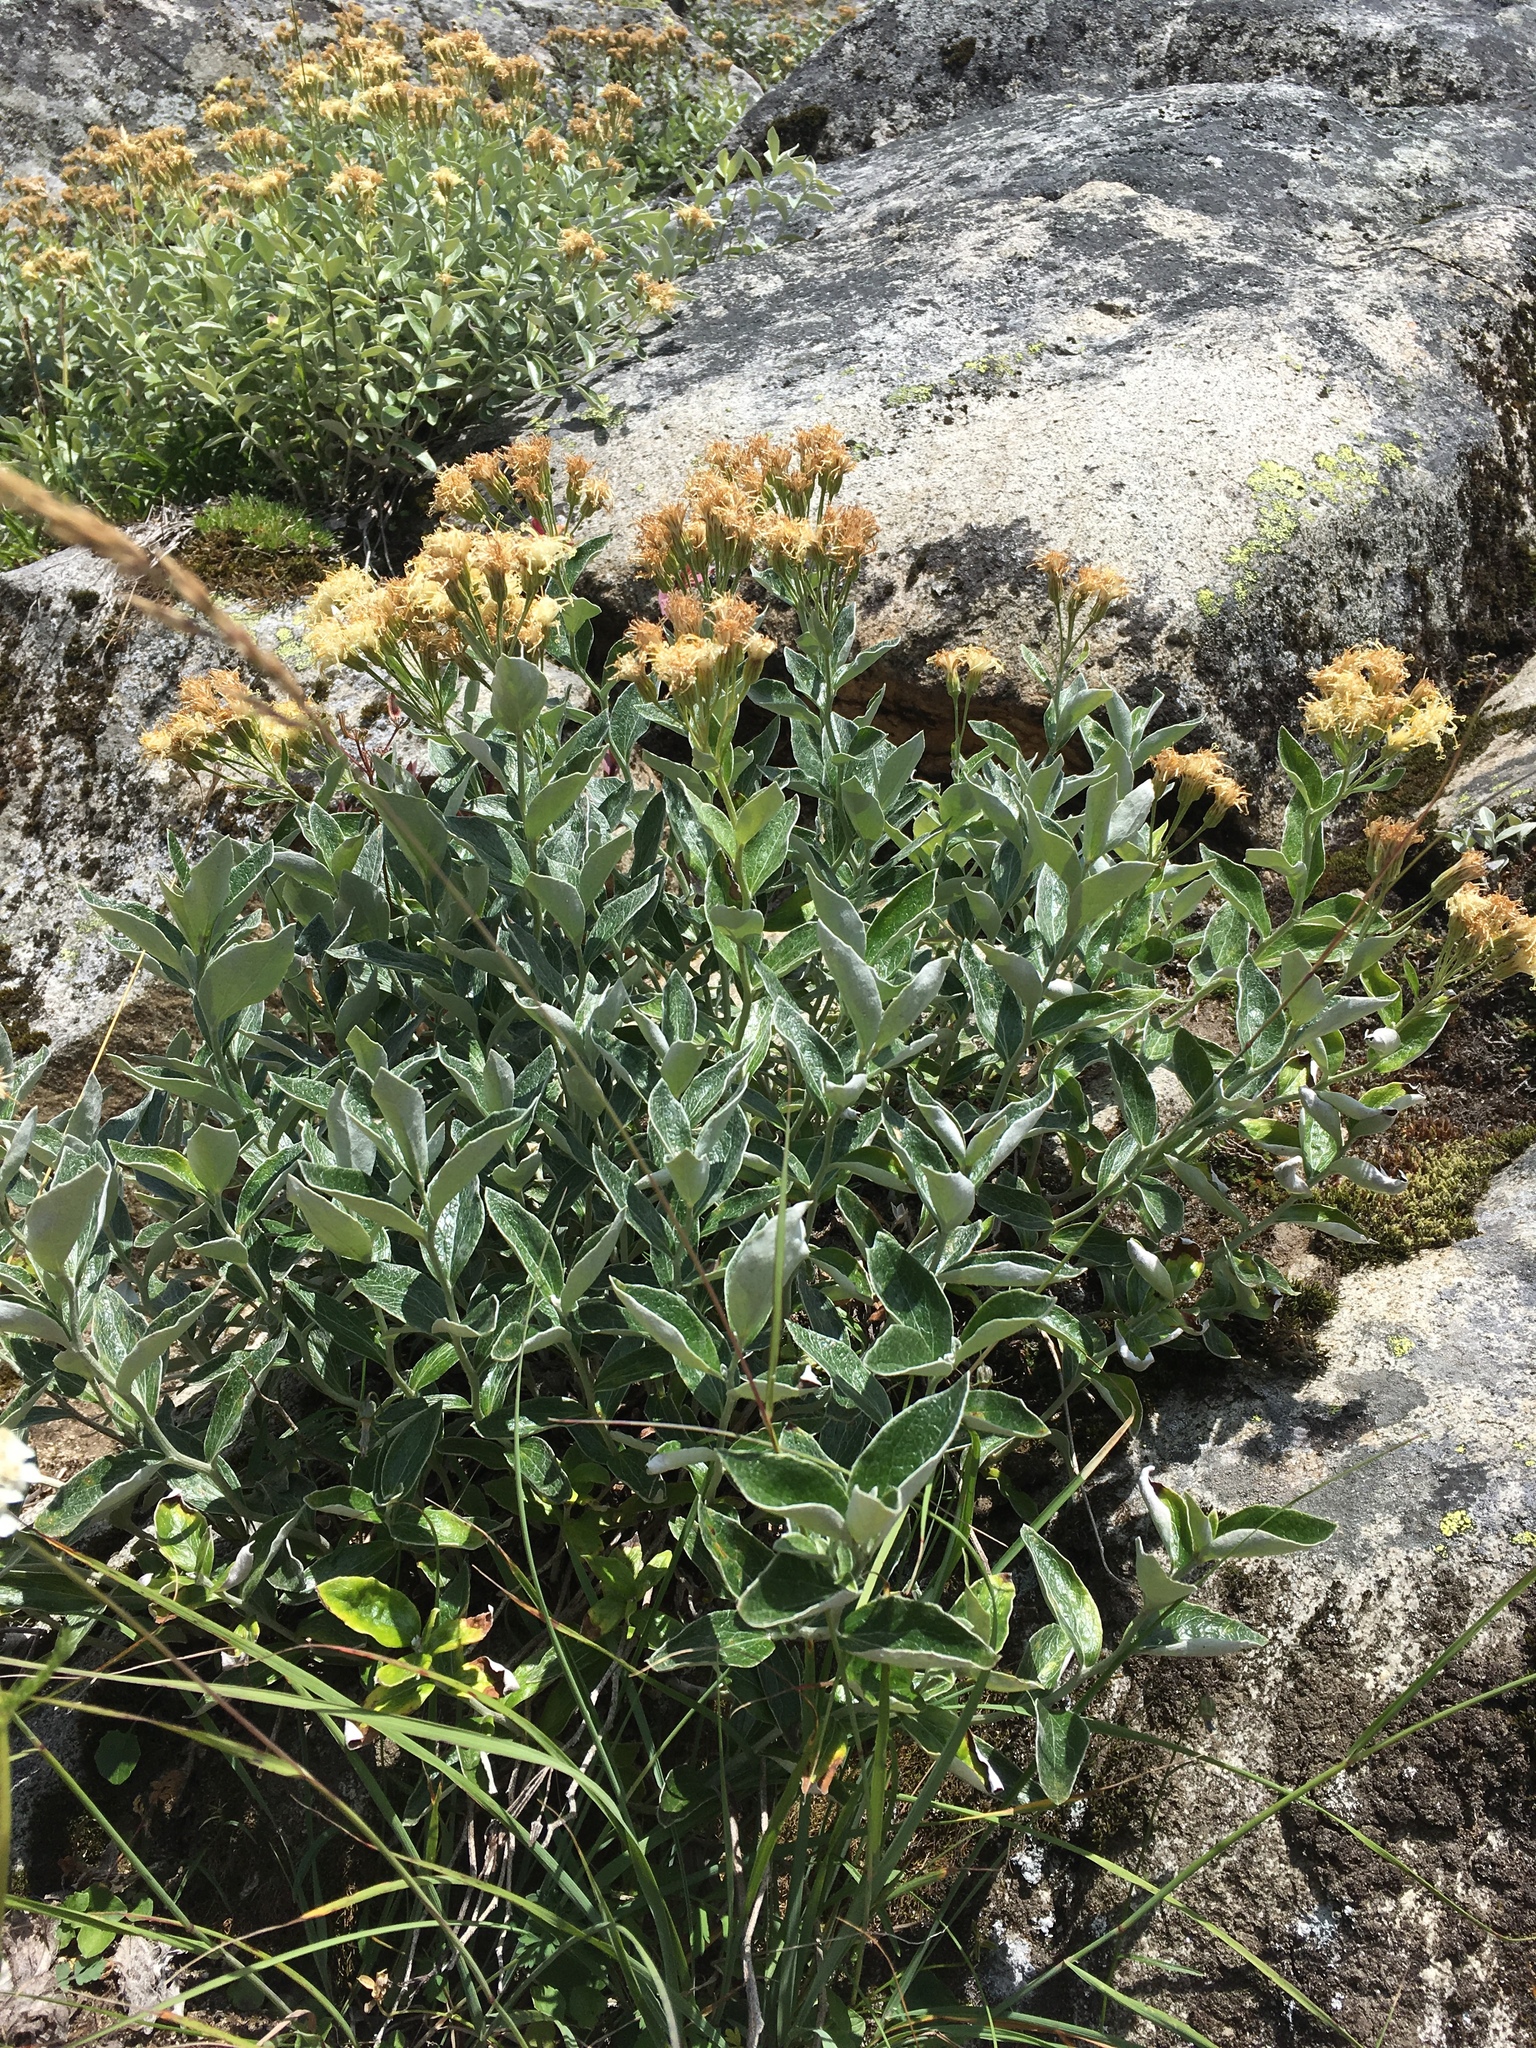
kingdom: Plantae
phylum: Tracheophyta
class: Magnoliopsida
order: Asterales
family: Asteraceae
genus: Luina
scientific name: Luina hypoleuca
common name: Little-leaved luina
